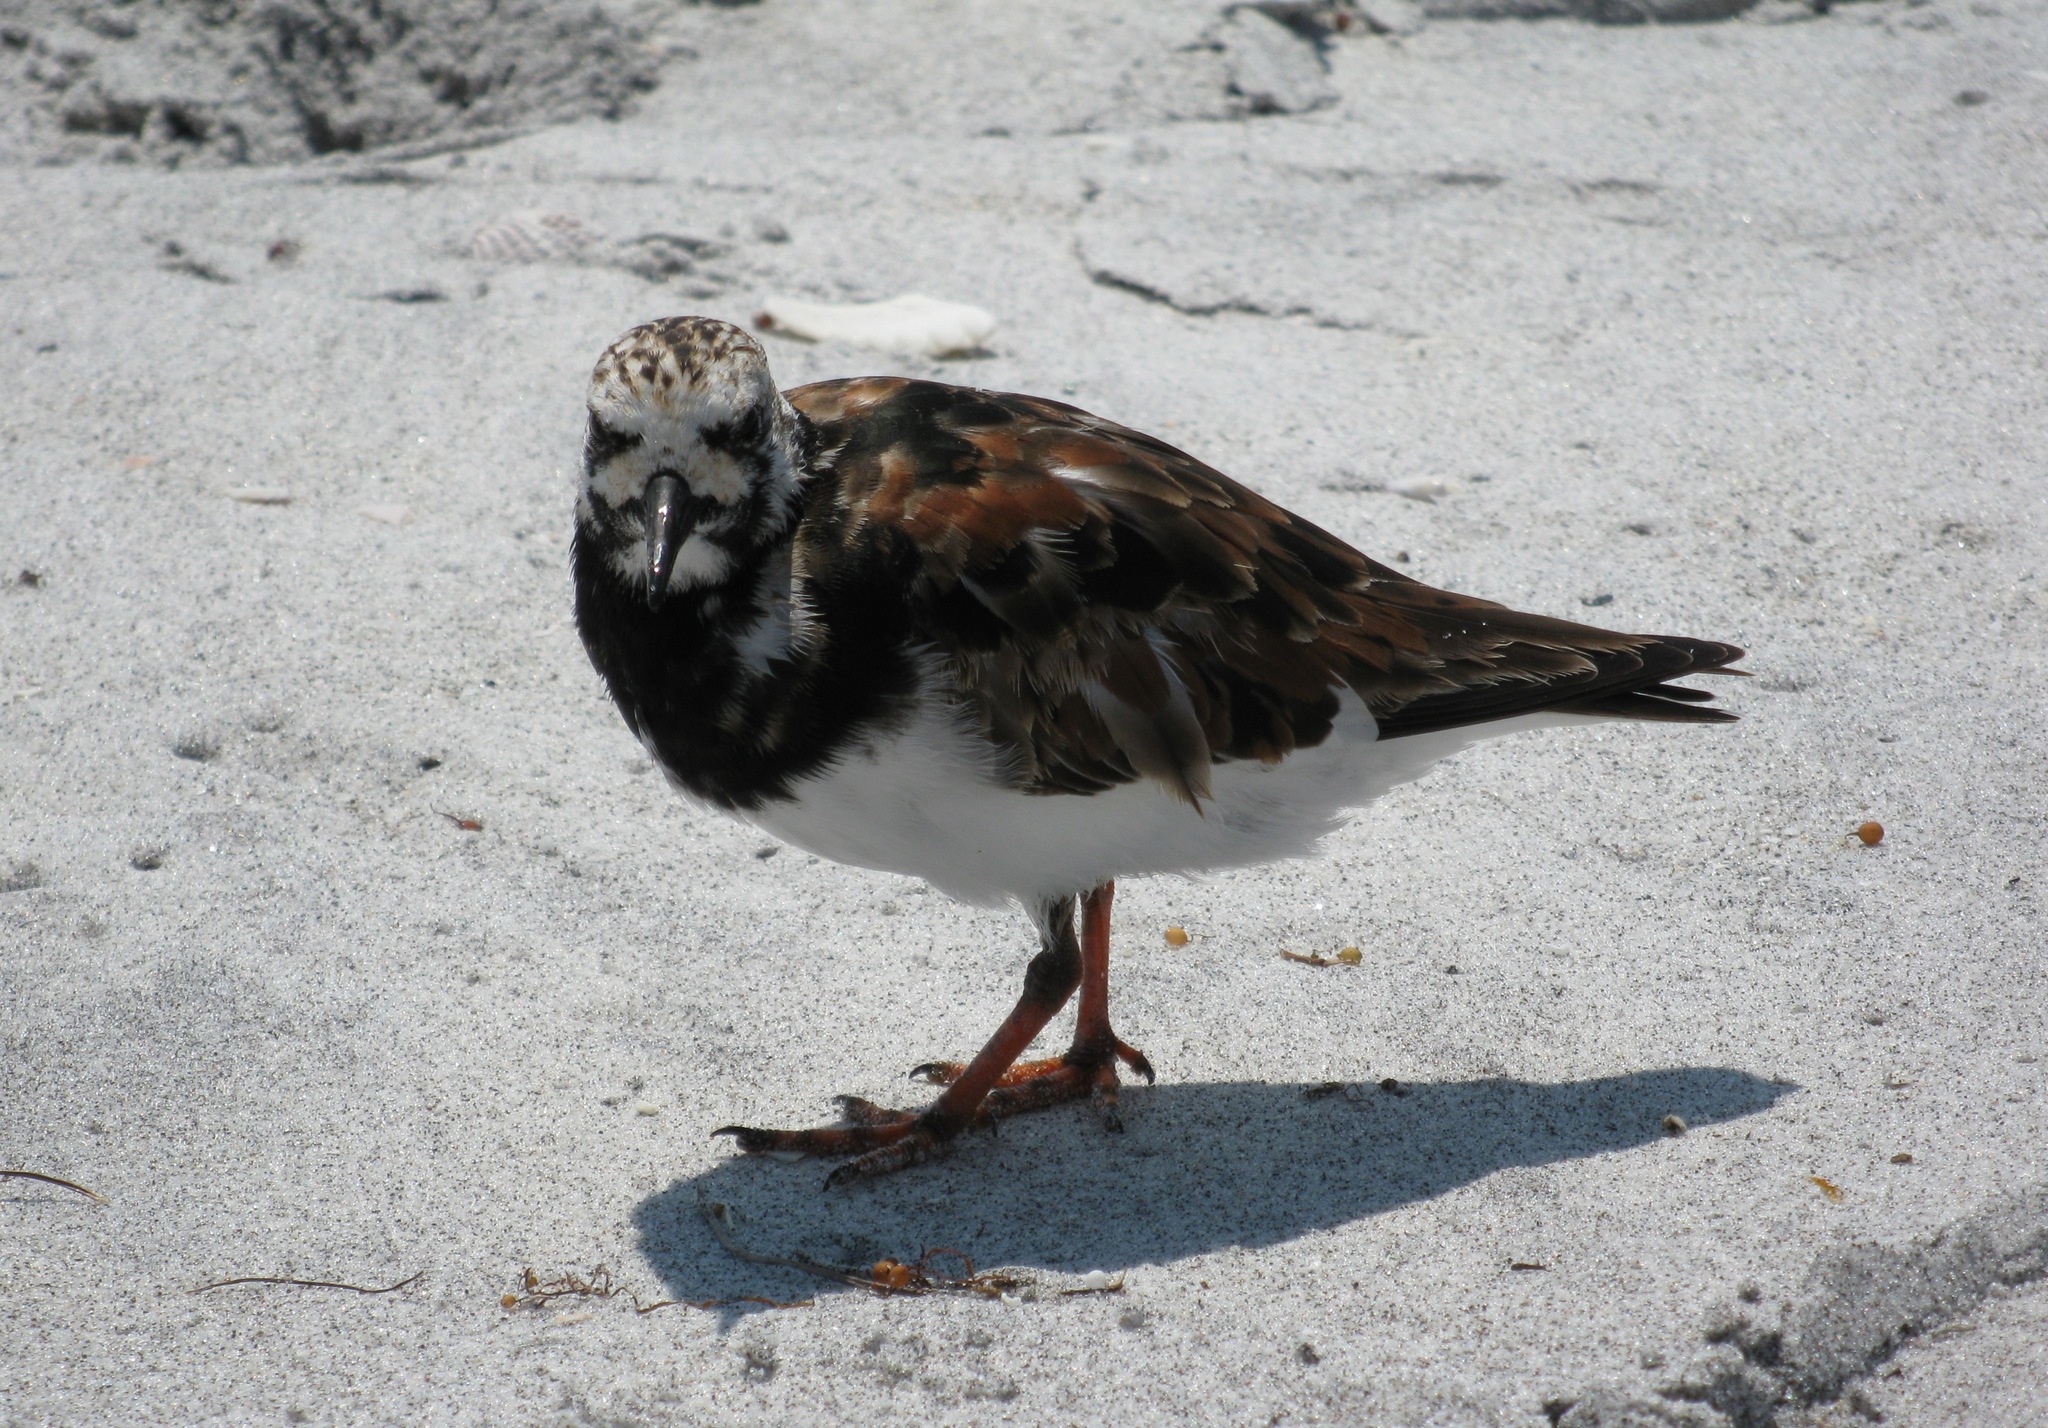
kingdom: Animalia
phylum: Chordata
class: Aves
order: Charadriiformes
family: Scolopacidae
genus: Arenaria
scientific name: Arenaria interpres
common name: Ruddy turnstone
